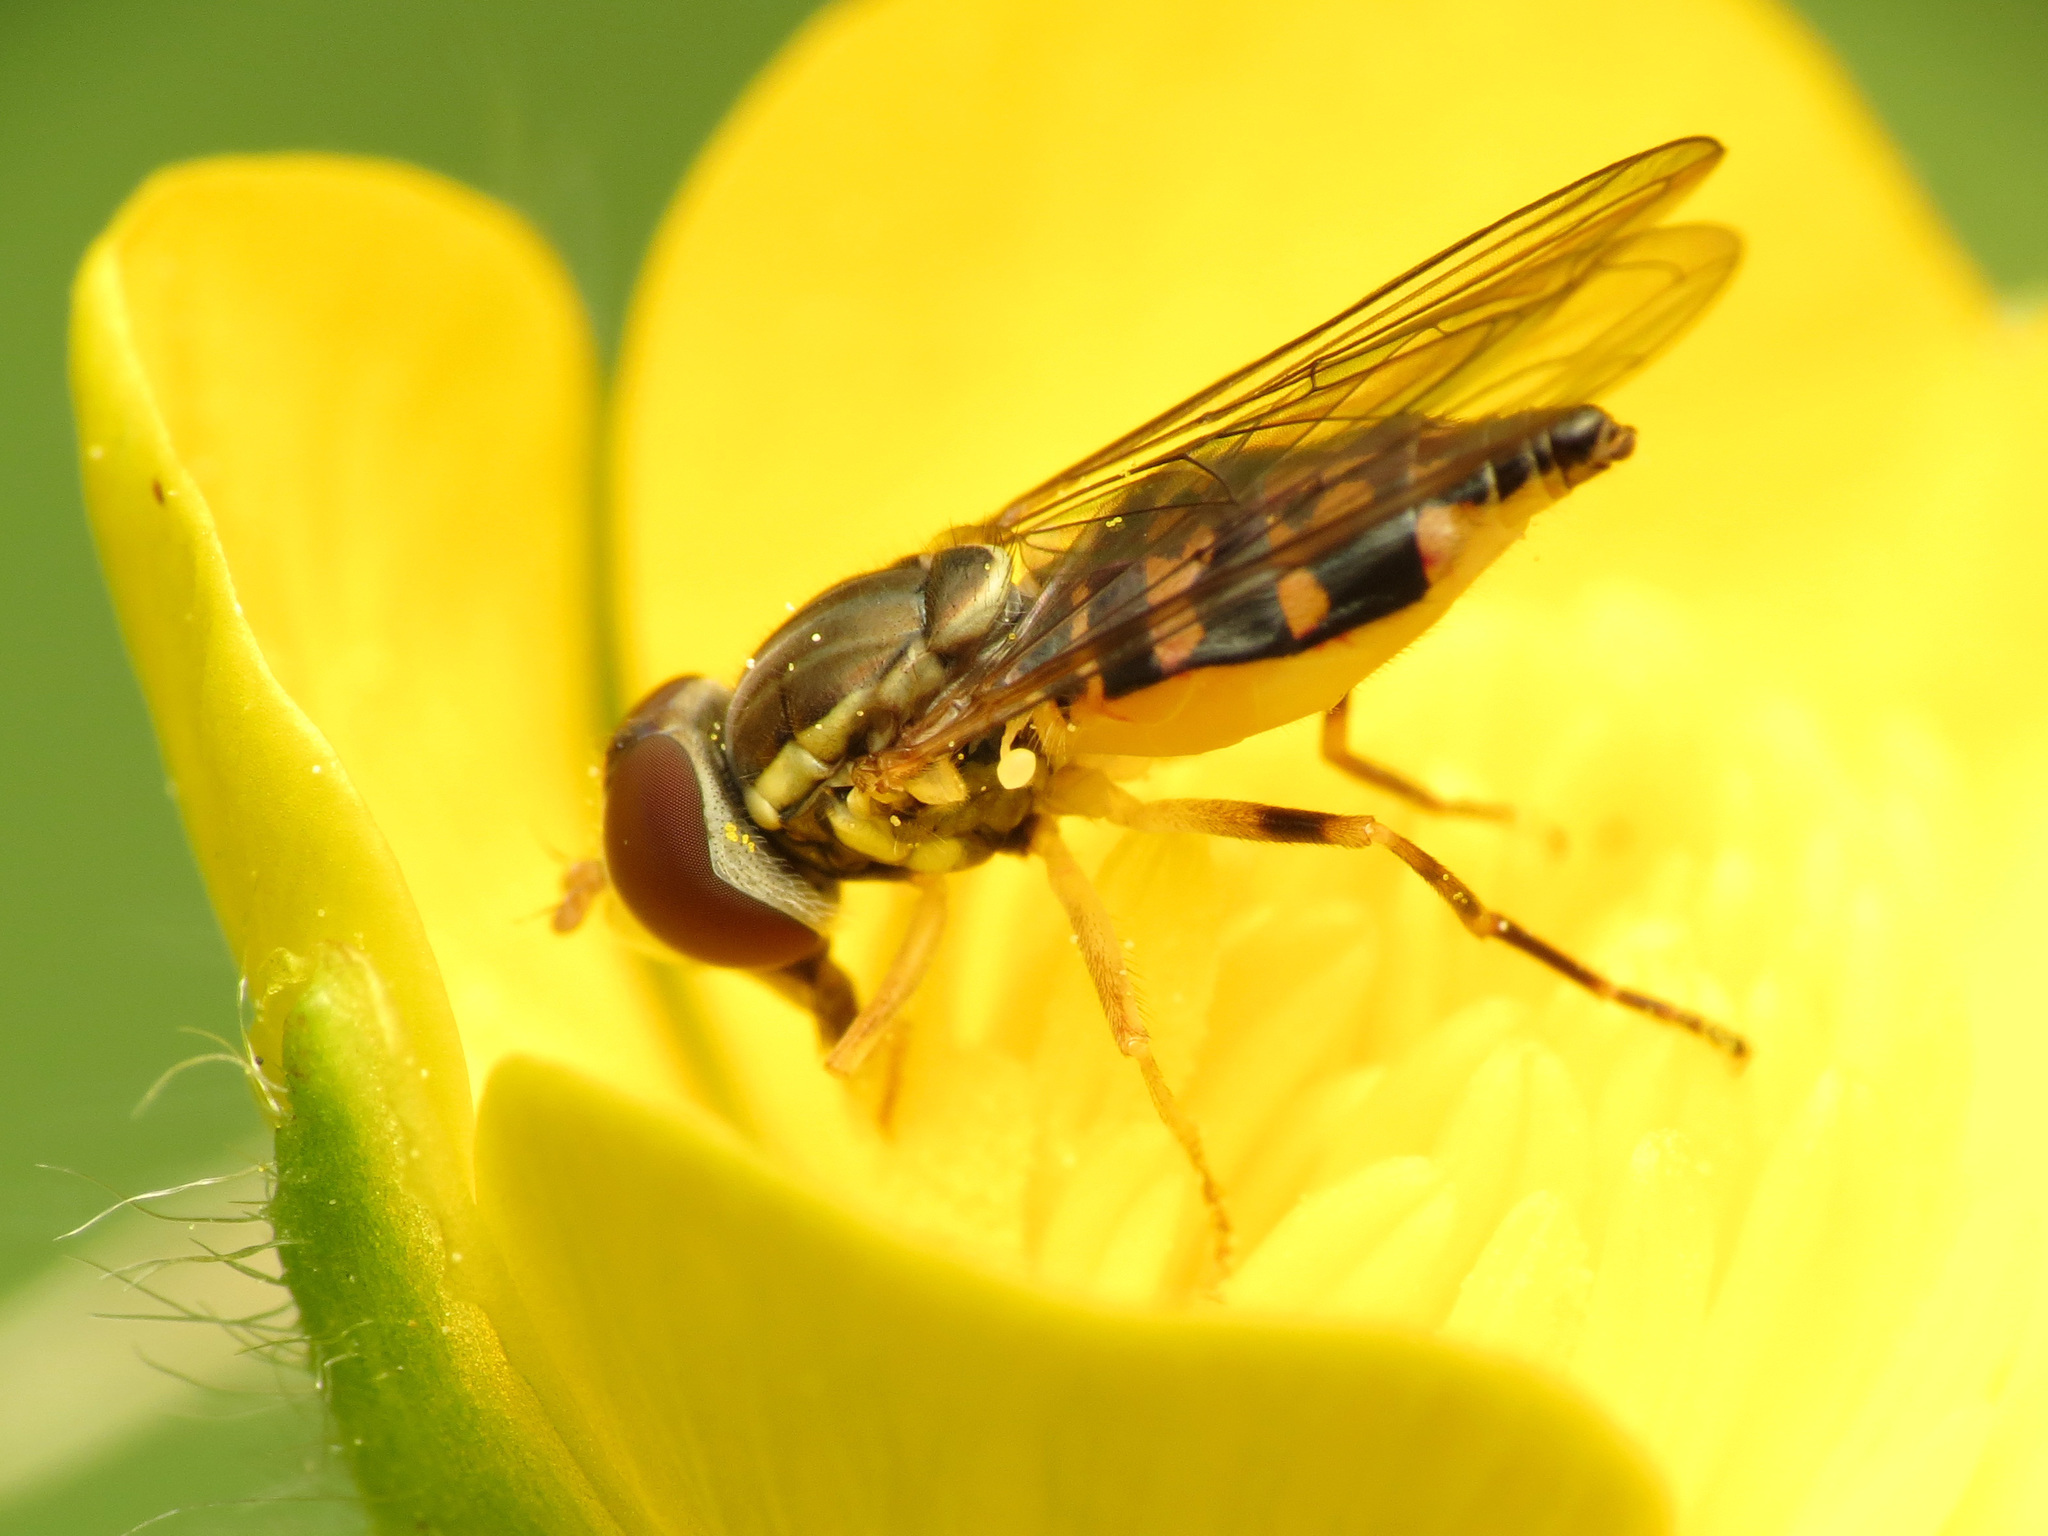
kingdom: Animalia
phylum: Arthropoda
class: Insecta
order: Diptera
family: Syrphidae
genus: Toxomerus
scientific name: Toxomerus geminatus
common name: Eastern calligrapher
